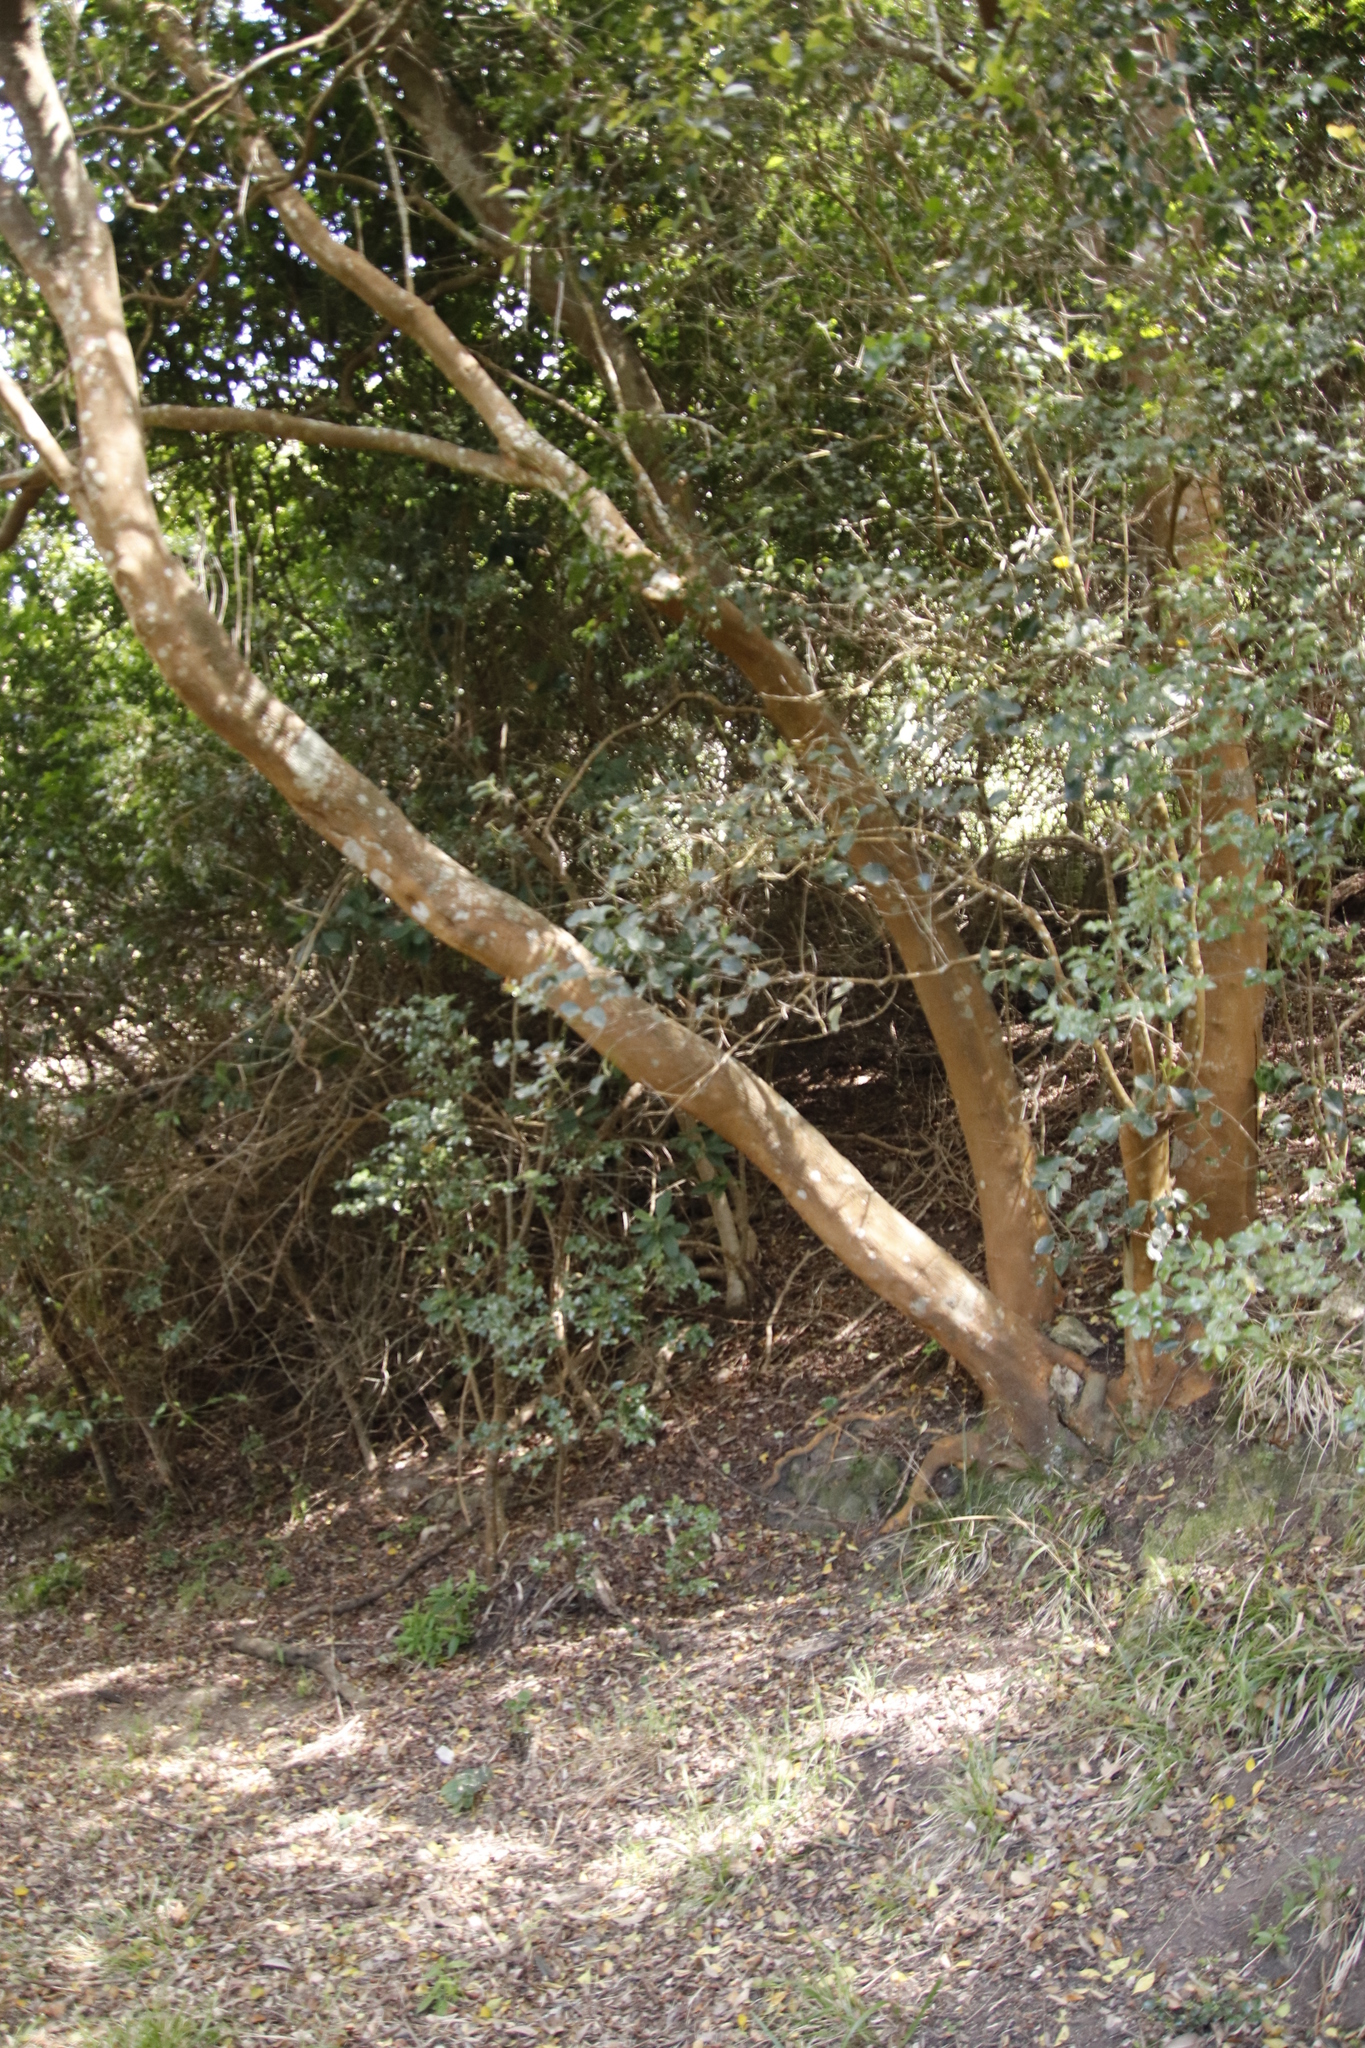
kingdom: Plantae
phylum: Tracheophyta
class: Magnoliopsida
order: Celastrales
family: Celastraceae
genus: Cassine
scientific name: Cassine peragua
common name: Cape saffron
